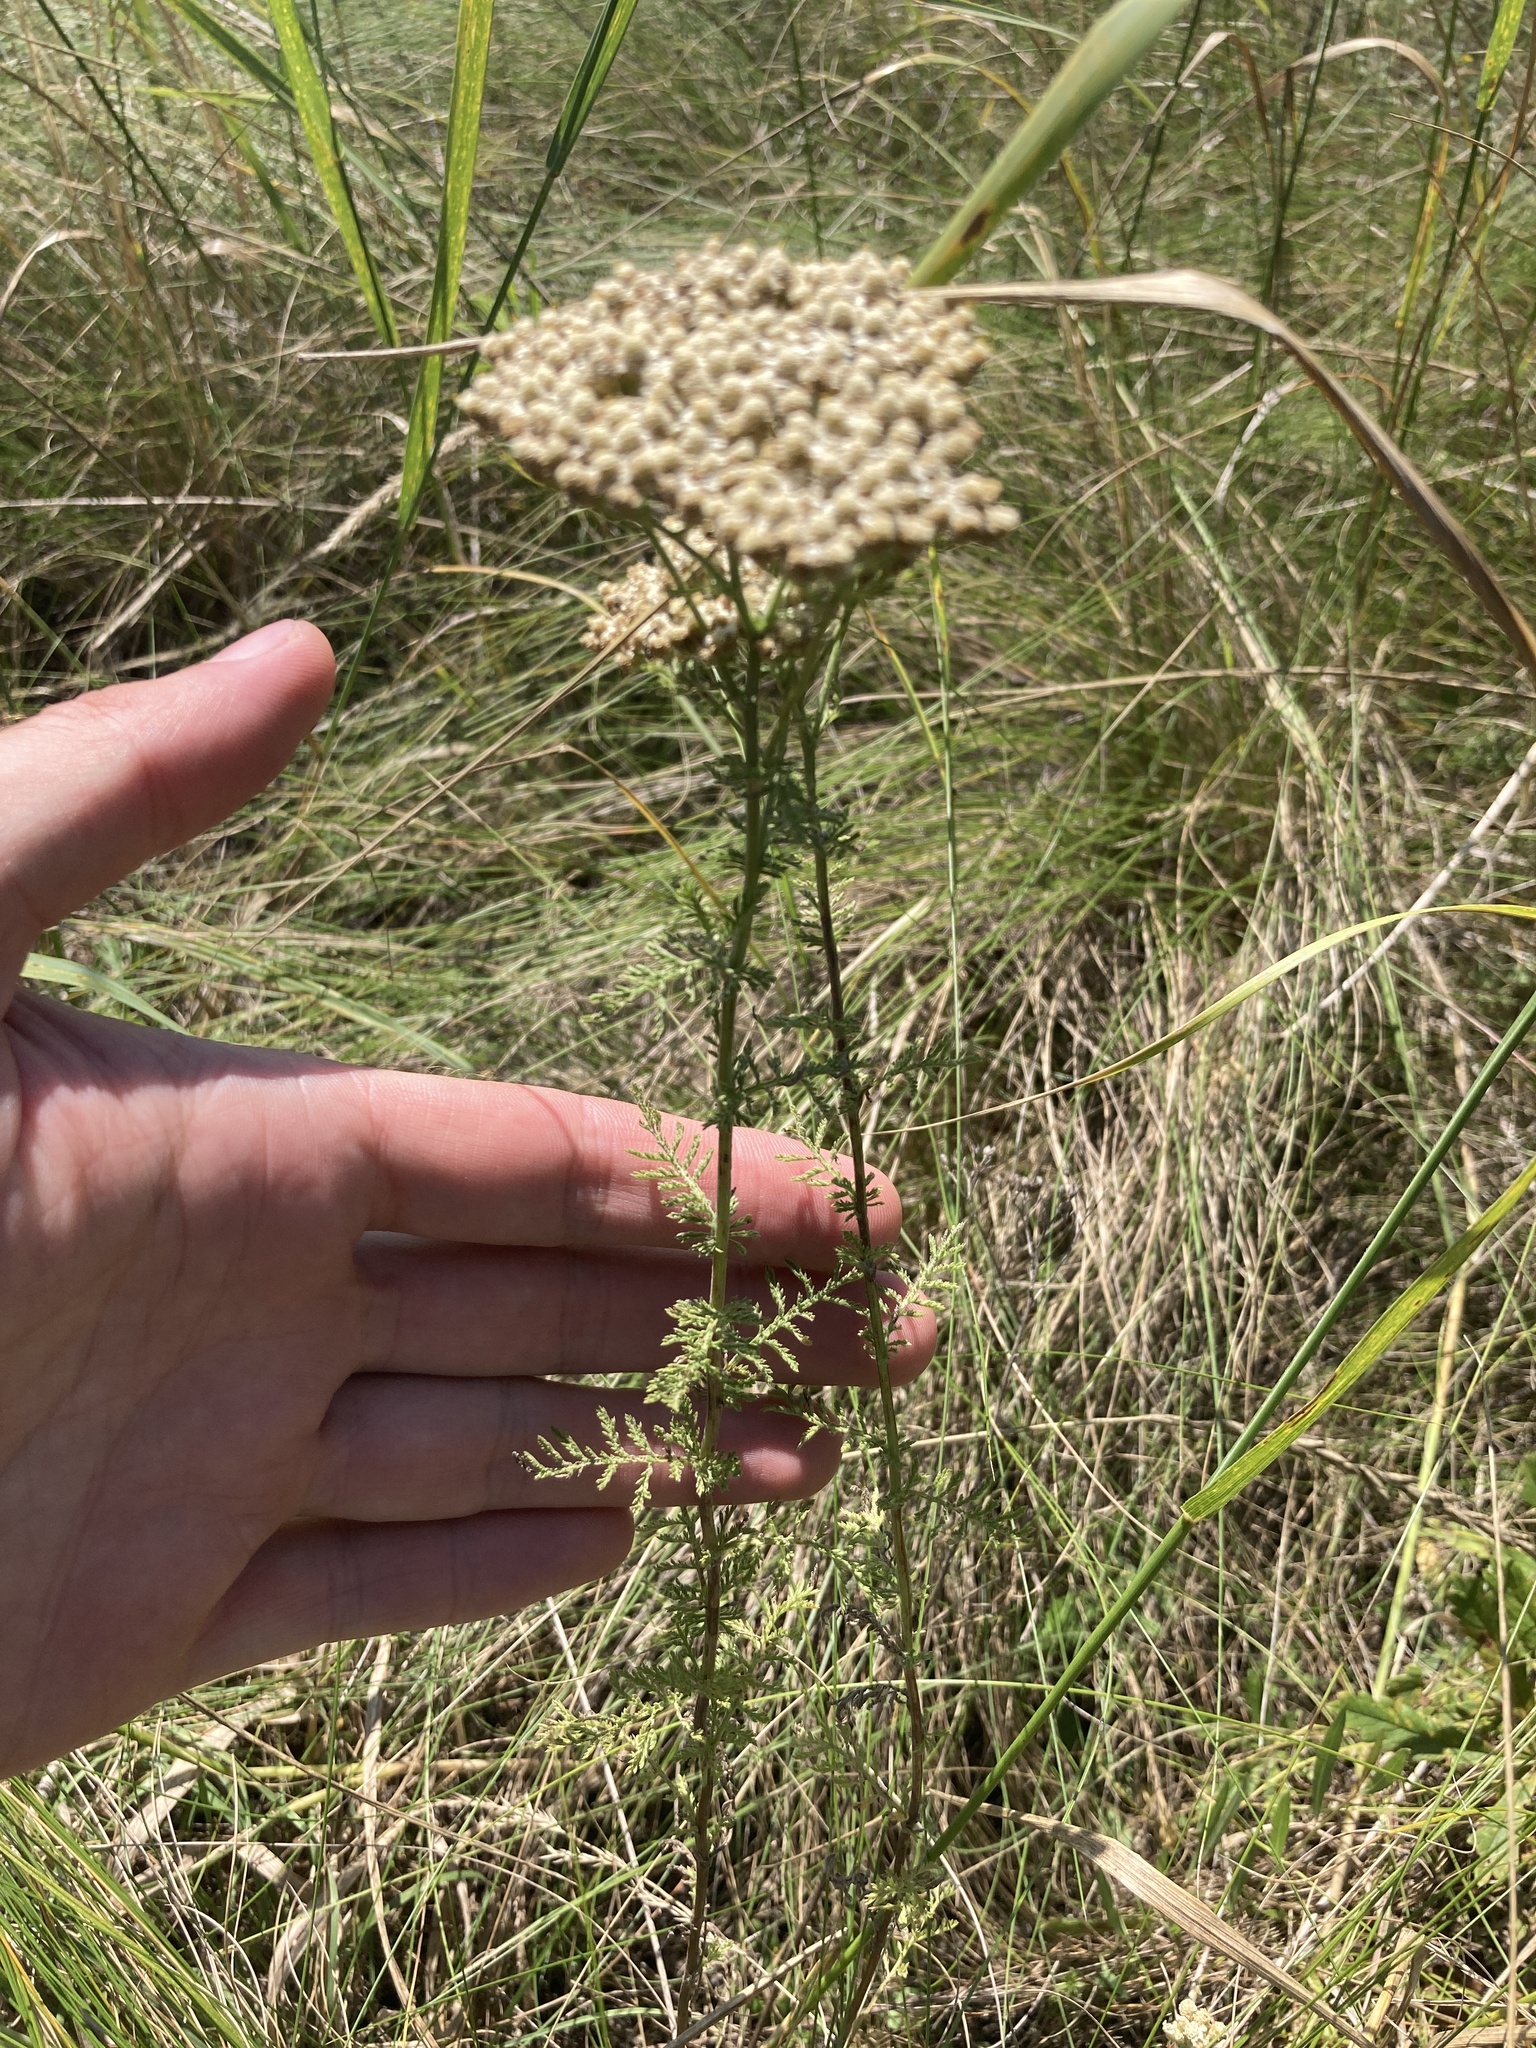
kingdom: Plantae
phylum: Tracheophyta
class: Magnoliopsida
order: Asterales
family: Asteraceae
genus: Achillea
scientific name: Achillea nobilis
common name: Noble yarrow
